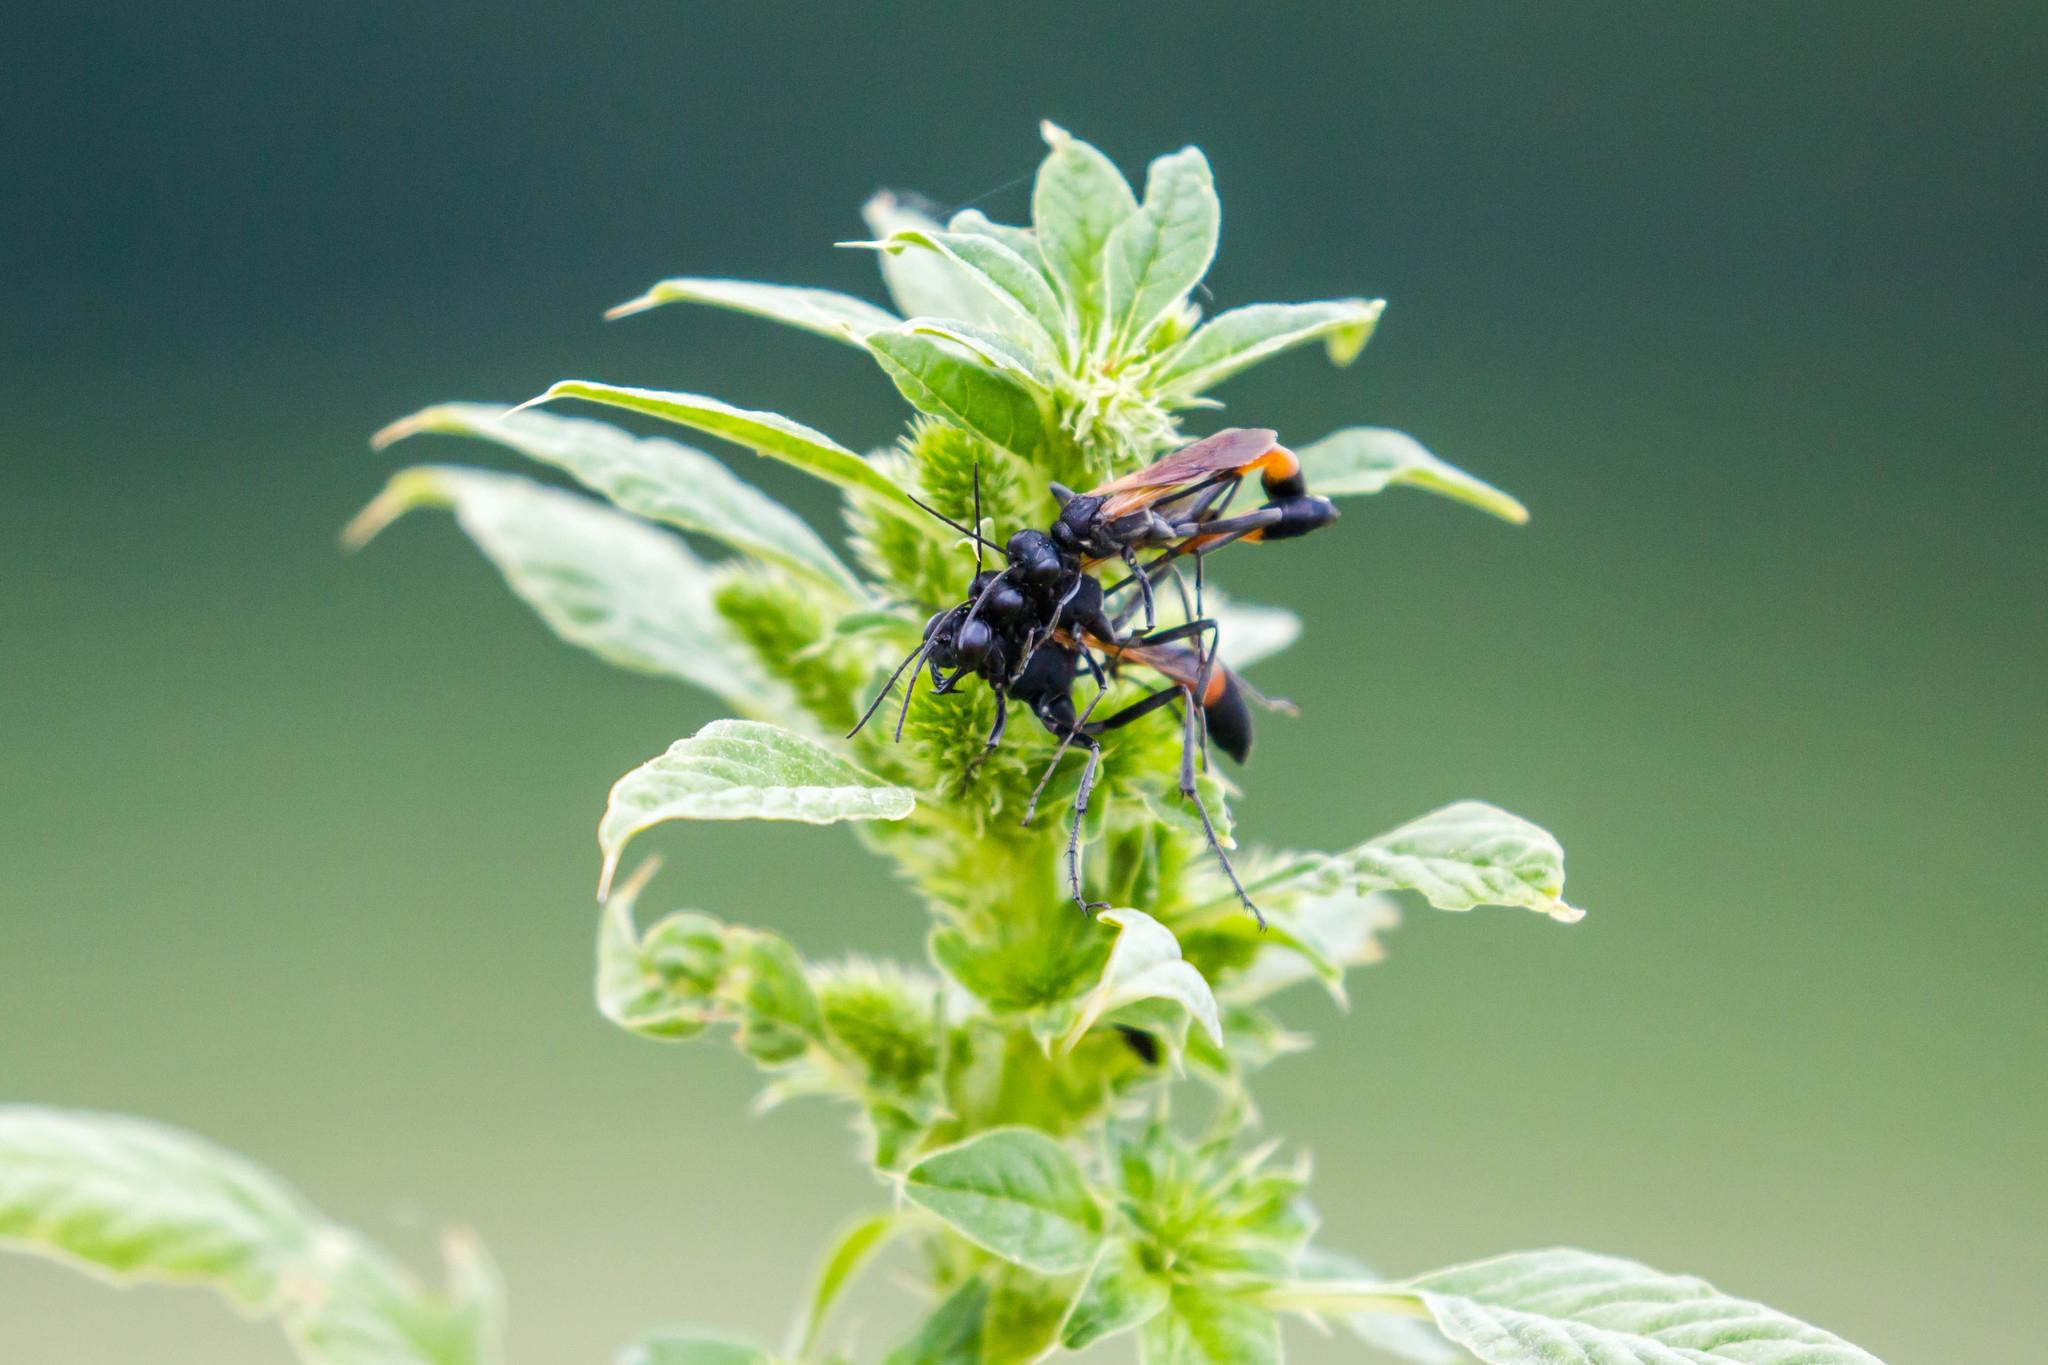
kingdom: Animalia
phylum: Arthropoda
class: Insecta
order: Hymenoptera
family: Sphecidae
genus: Ammophila
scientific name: Ammophila pictipennis
